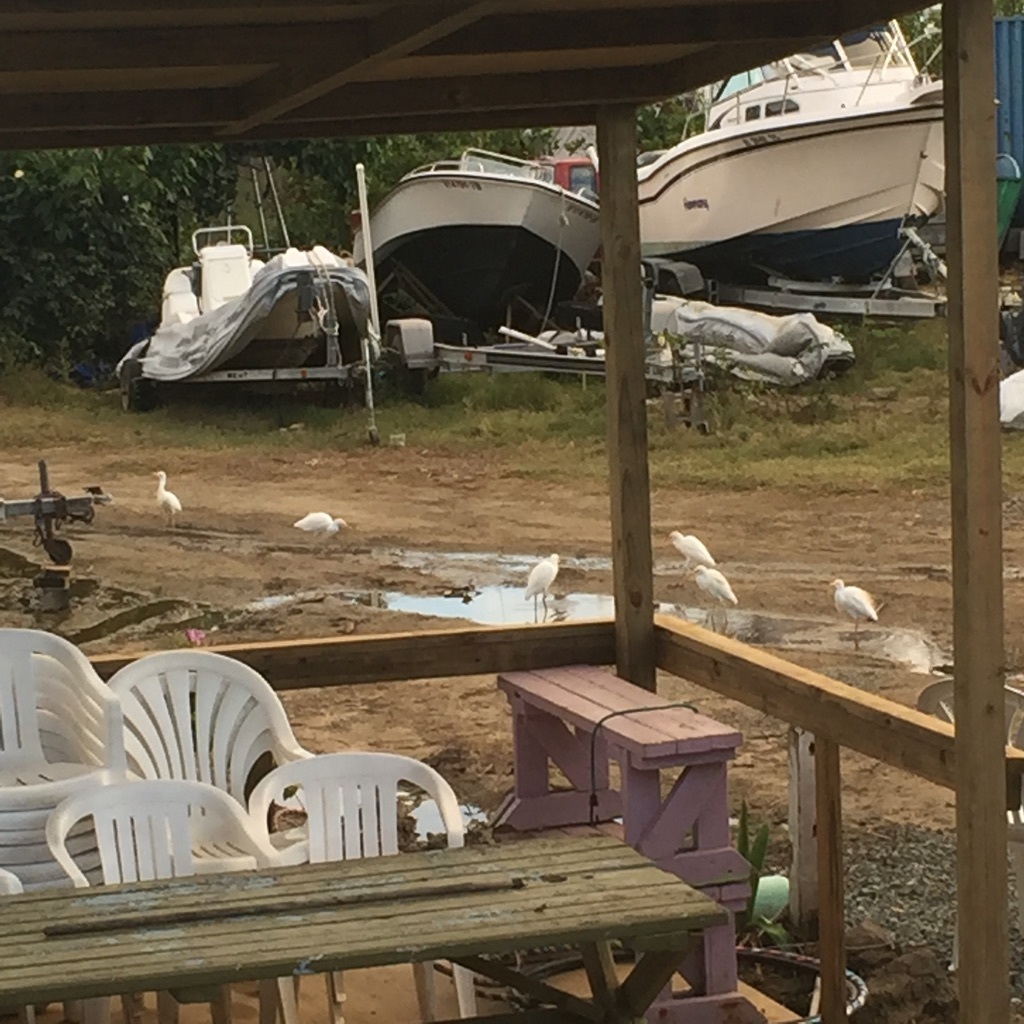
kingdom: Animalia
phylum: Chordata
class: Aves
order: Pelecaniformes
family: Ardeidae
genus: Bubulcus
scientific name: Bubulcus ibis
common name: Cattle egret
